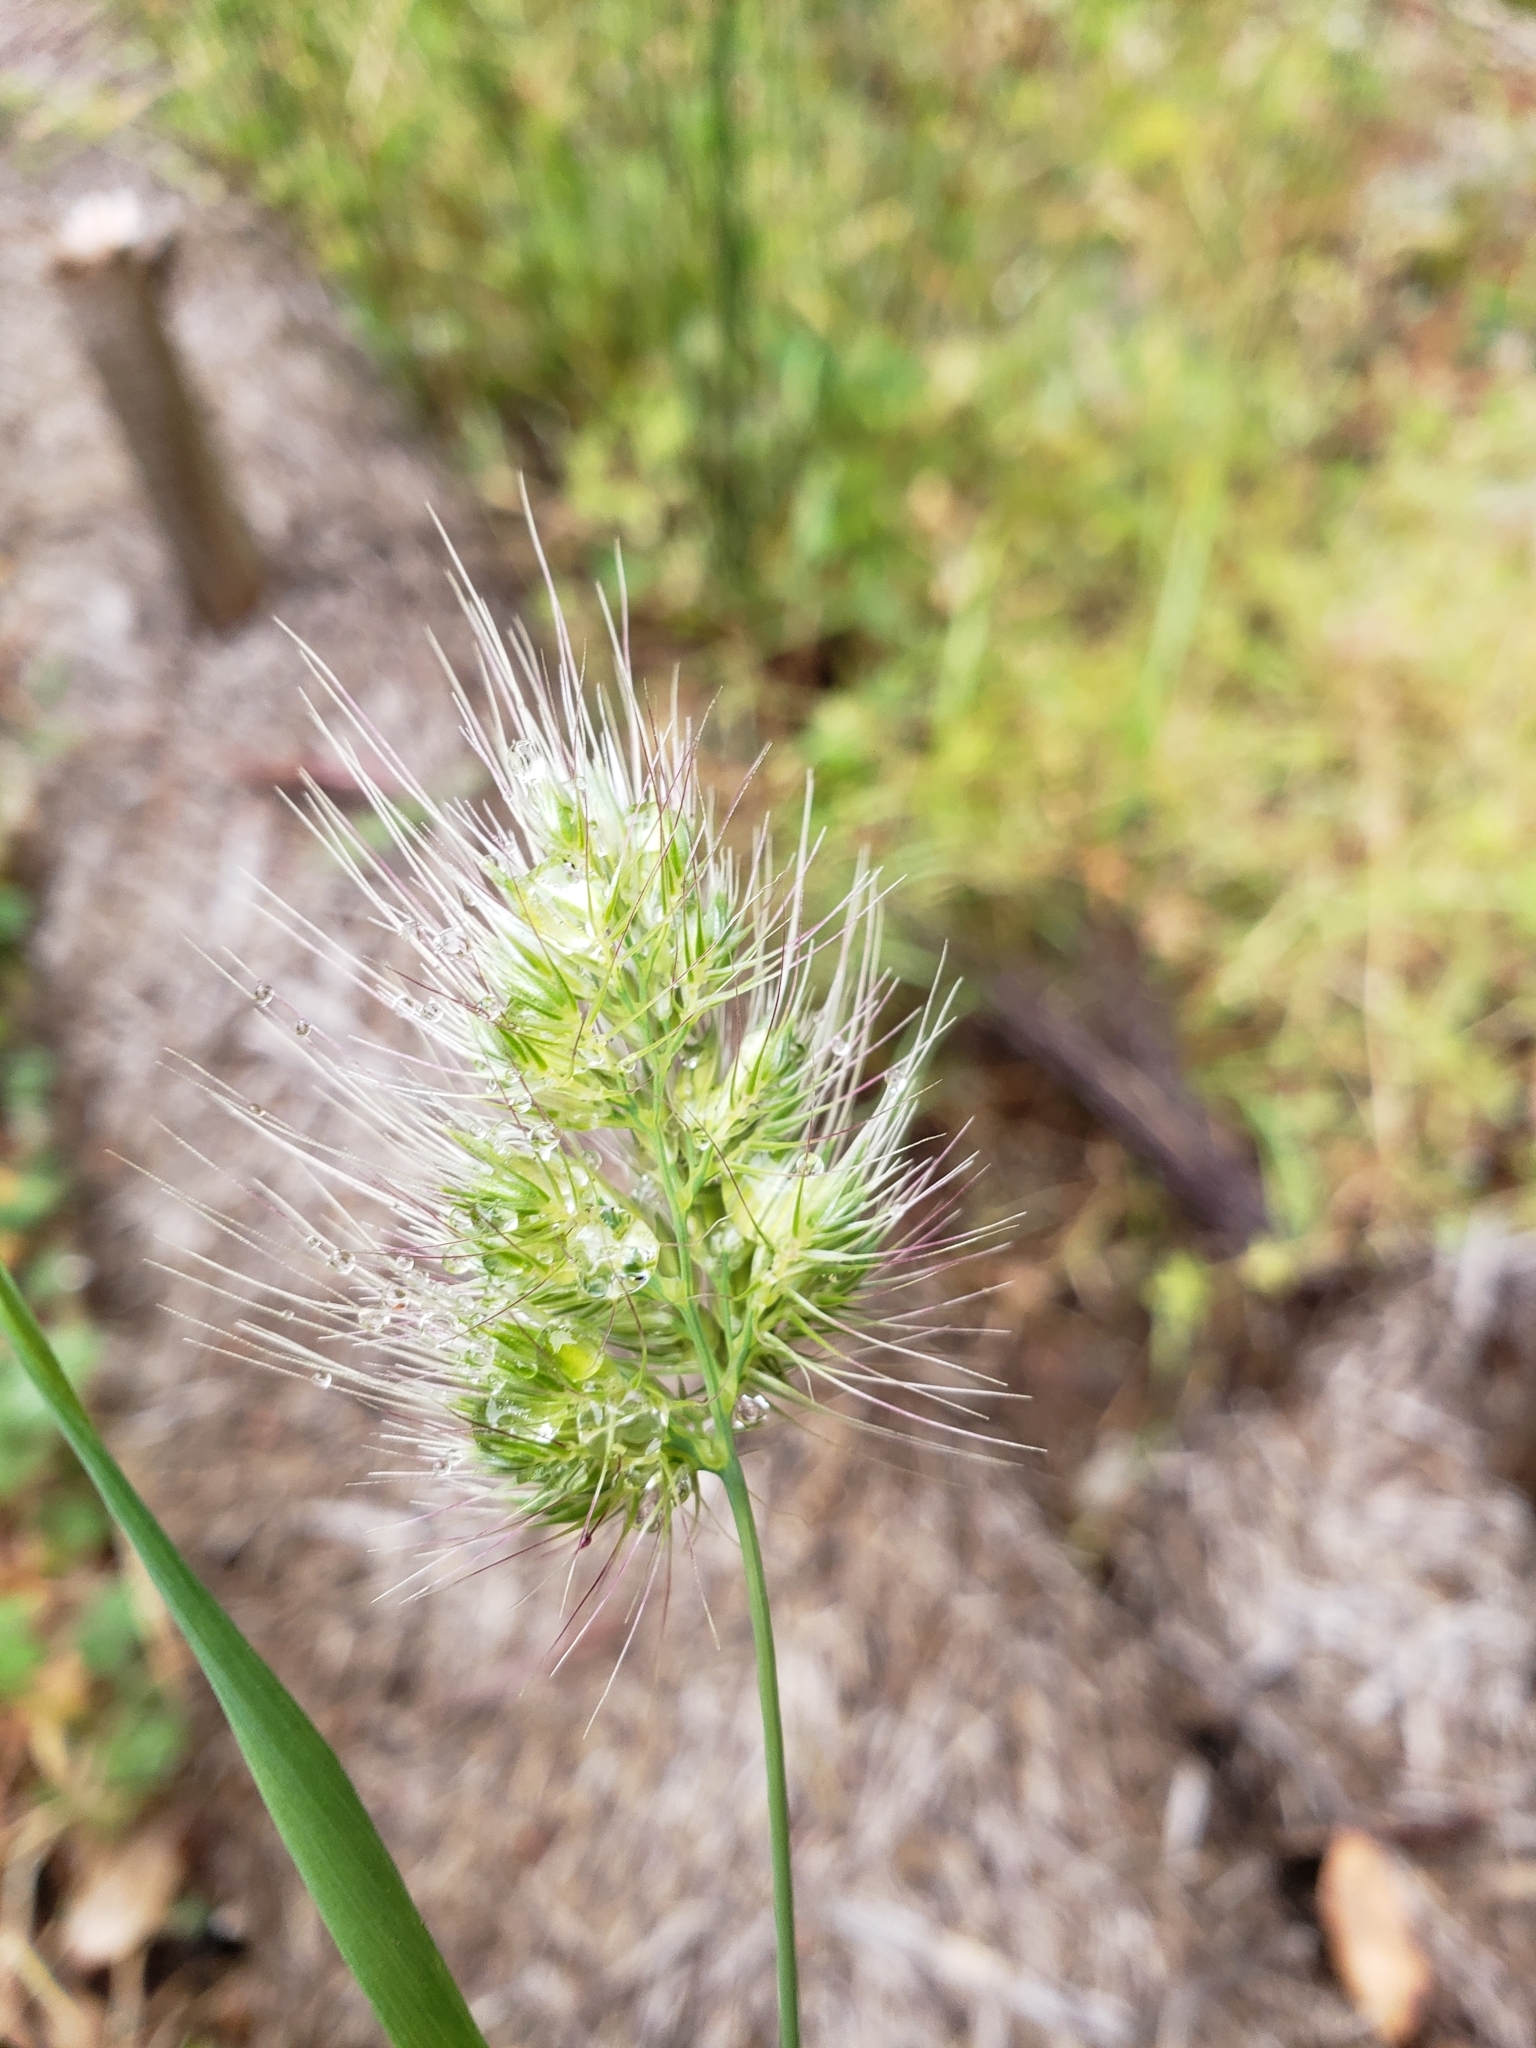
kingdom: Plantae
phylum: Tracheophyta
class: Liliopsida
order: Poales
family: Poaceae
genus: Cynosurus
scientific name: Cynosurus echinatus
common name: Rough dog's-tail
